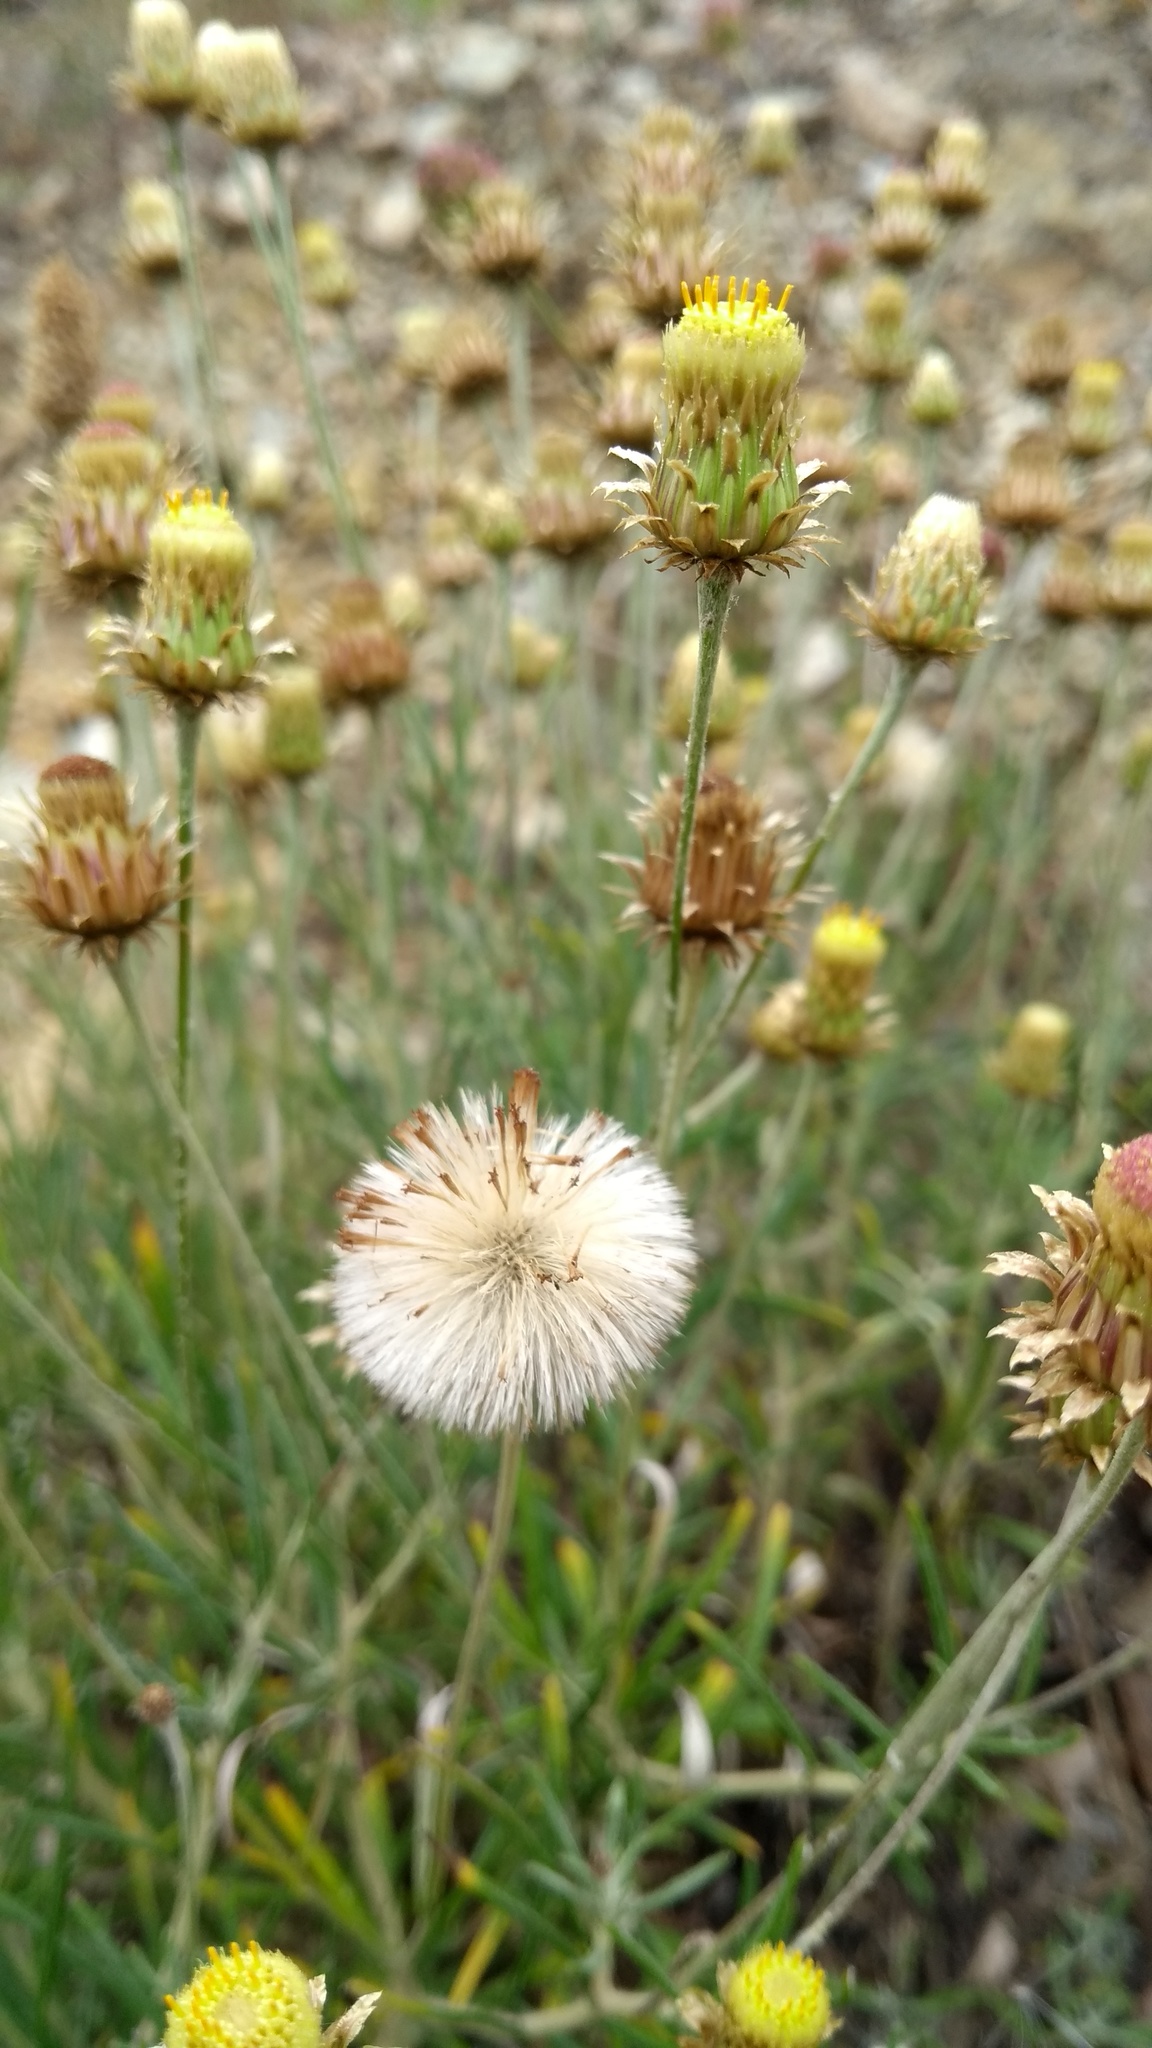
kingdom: Plantae
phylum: Tracheophyta
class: Magnoliopsida
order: Asterales
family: Asteraceae
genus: Phagnalon
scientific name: Phagnalon saxatile
